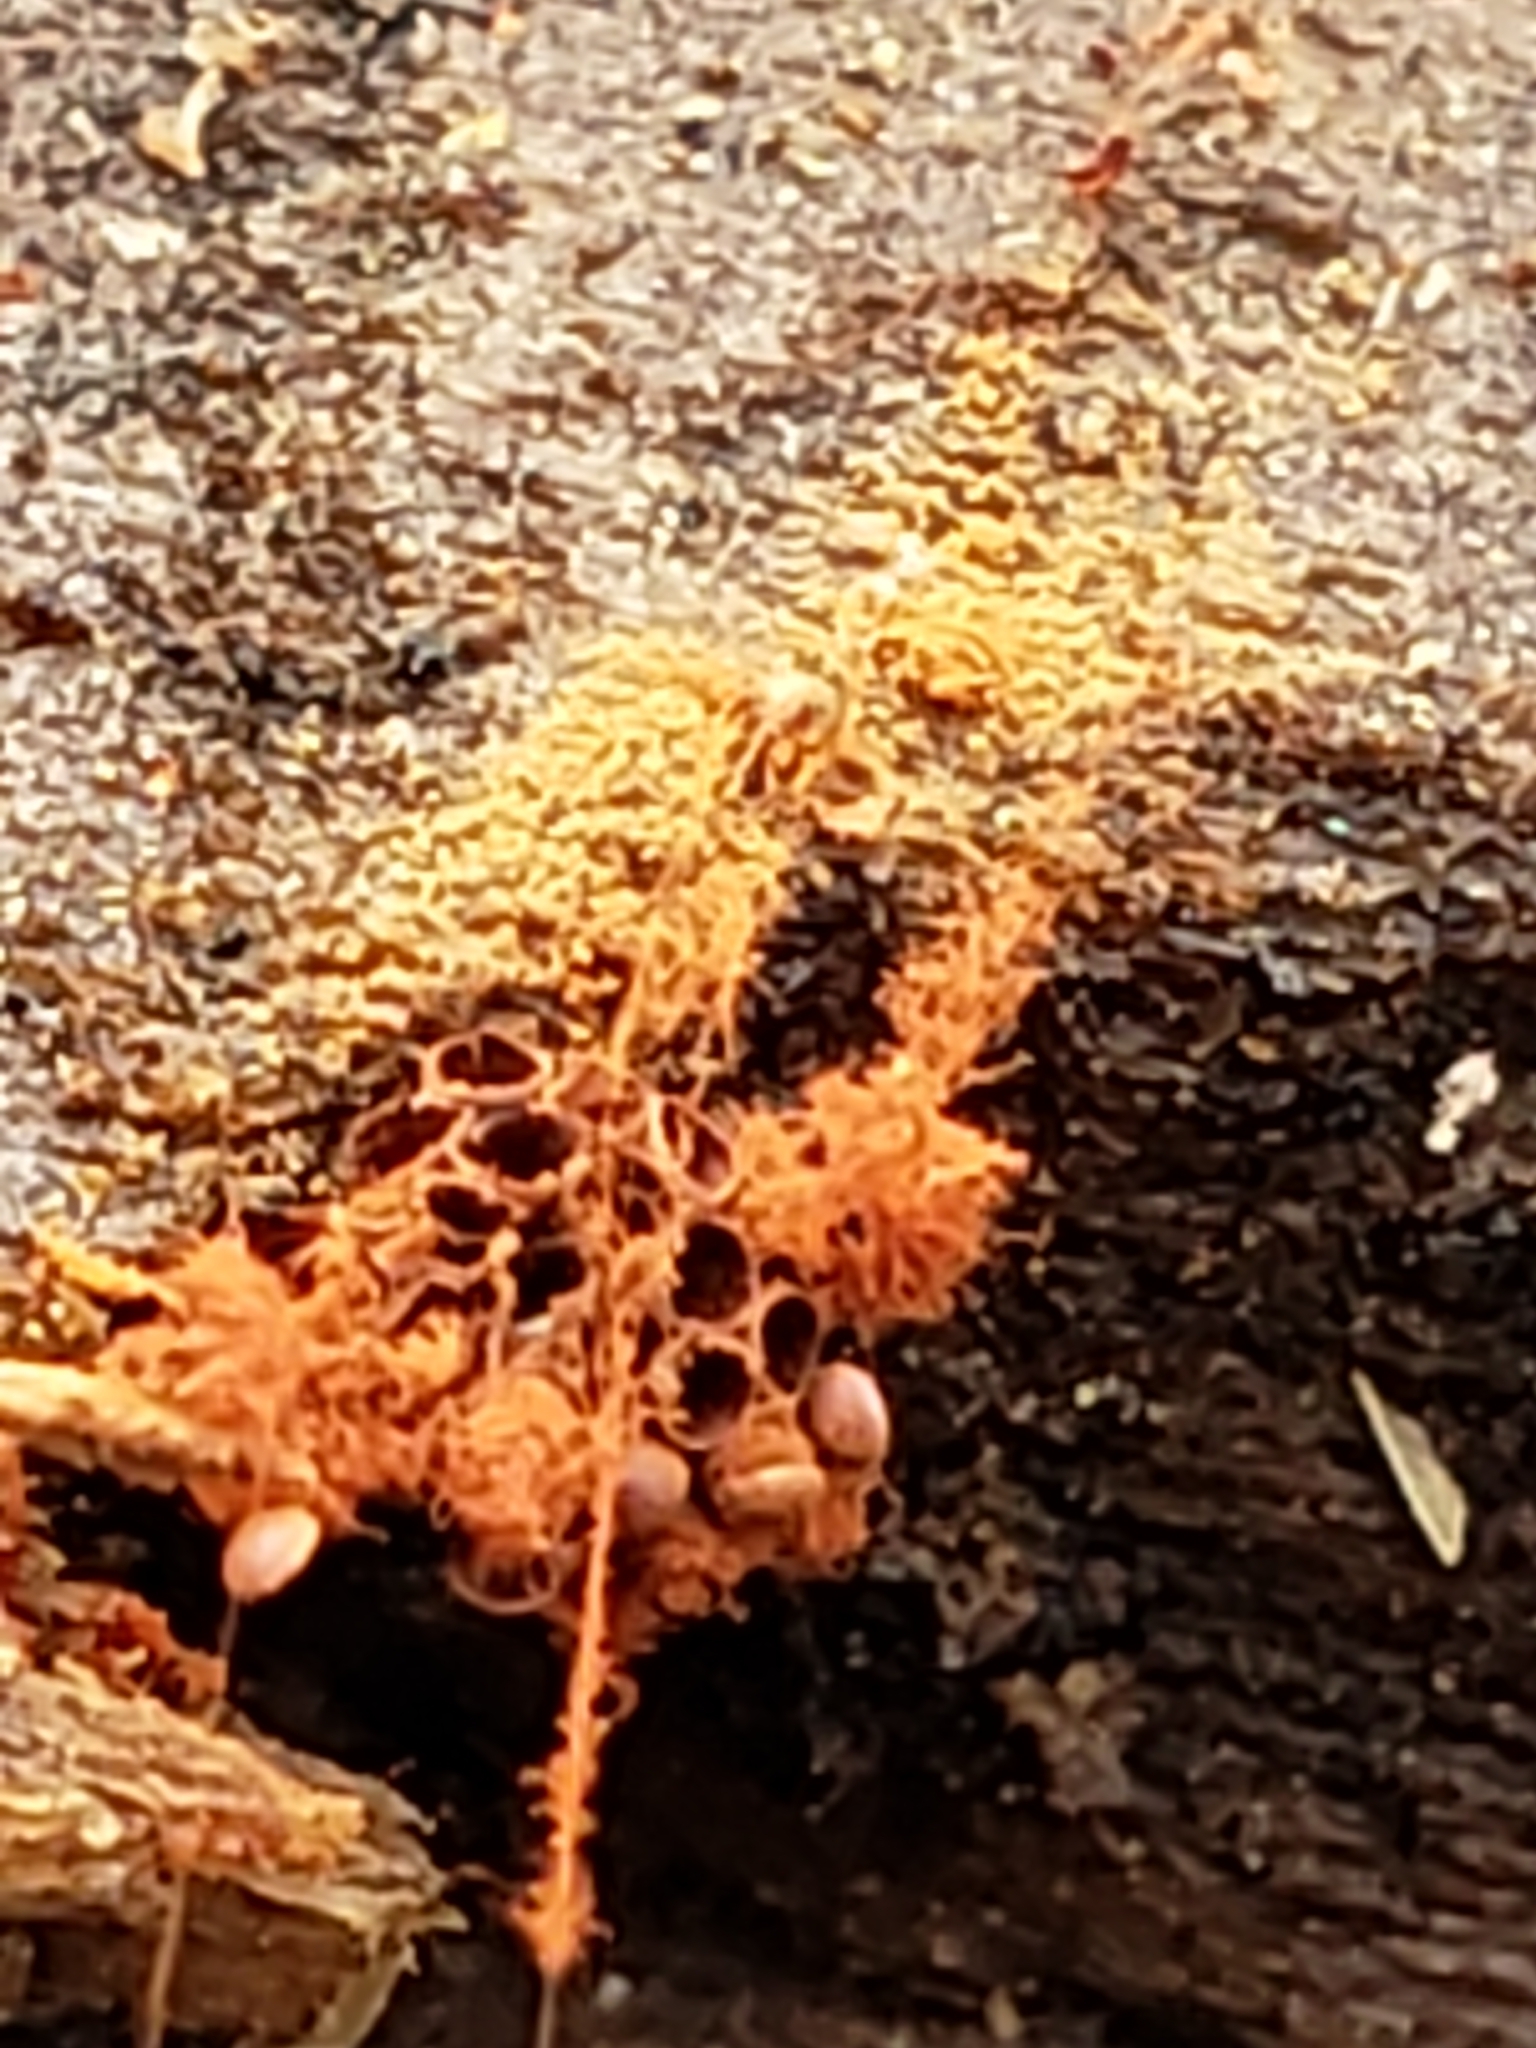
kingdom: Protozoa
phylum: Mycetozoa
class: Myxomycetes
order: Trichiales
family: Trichiaceae
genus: Metatrichia
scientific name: Metatrichia vesparia
